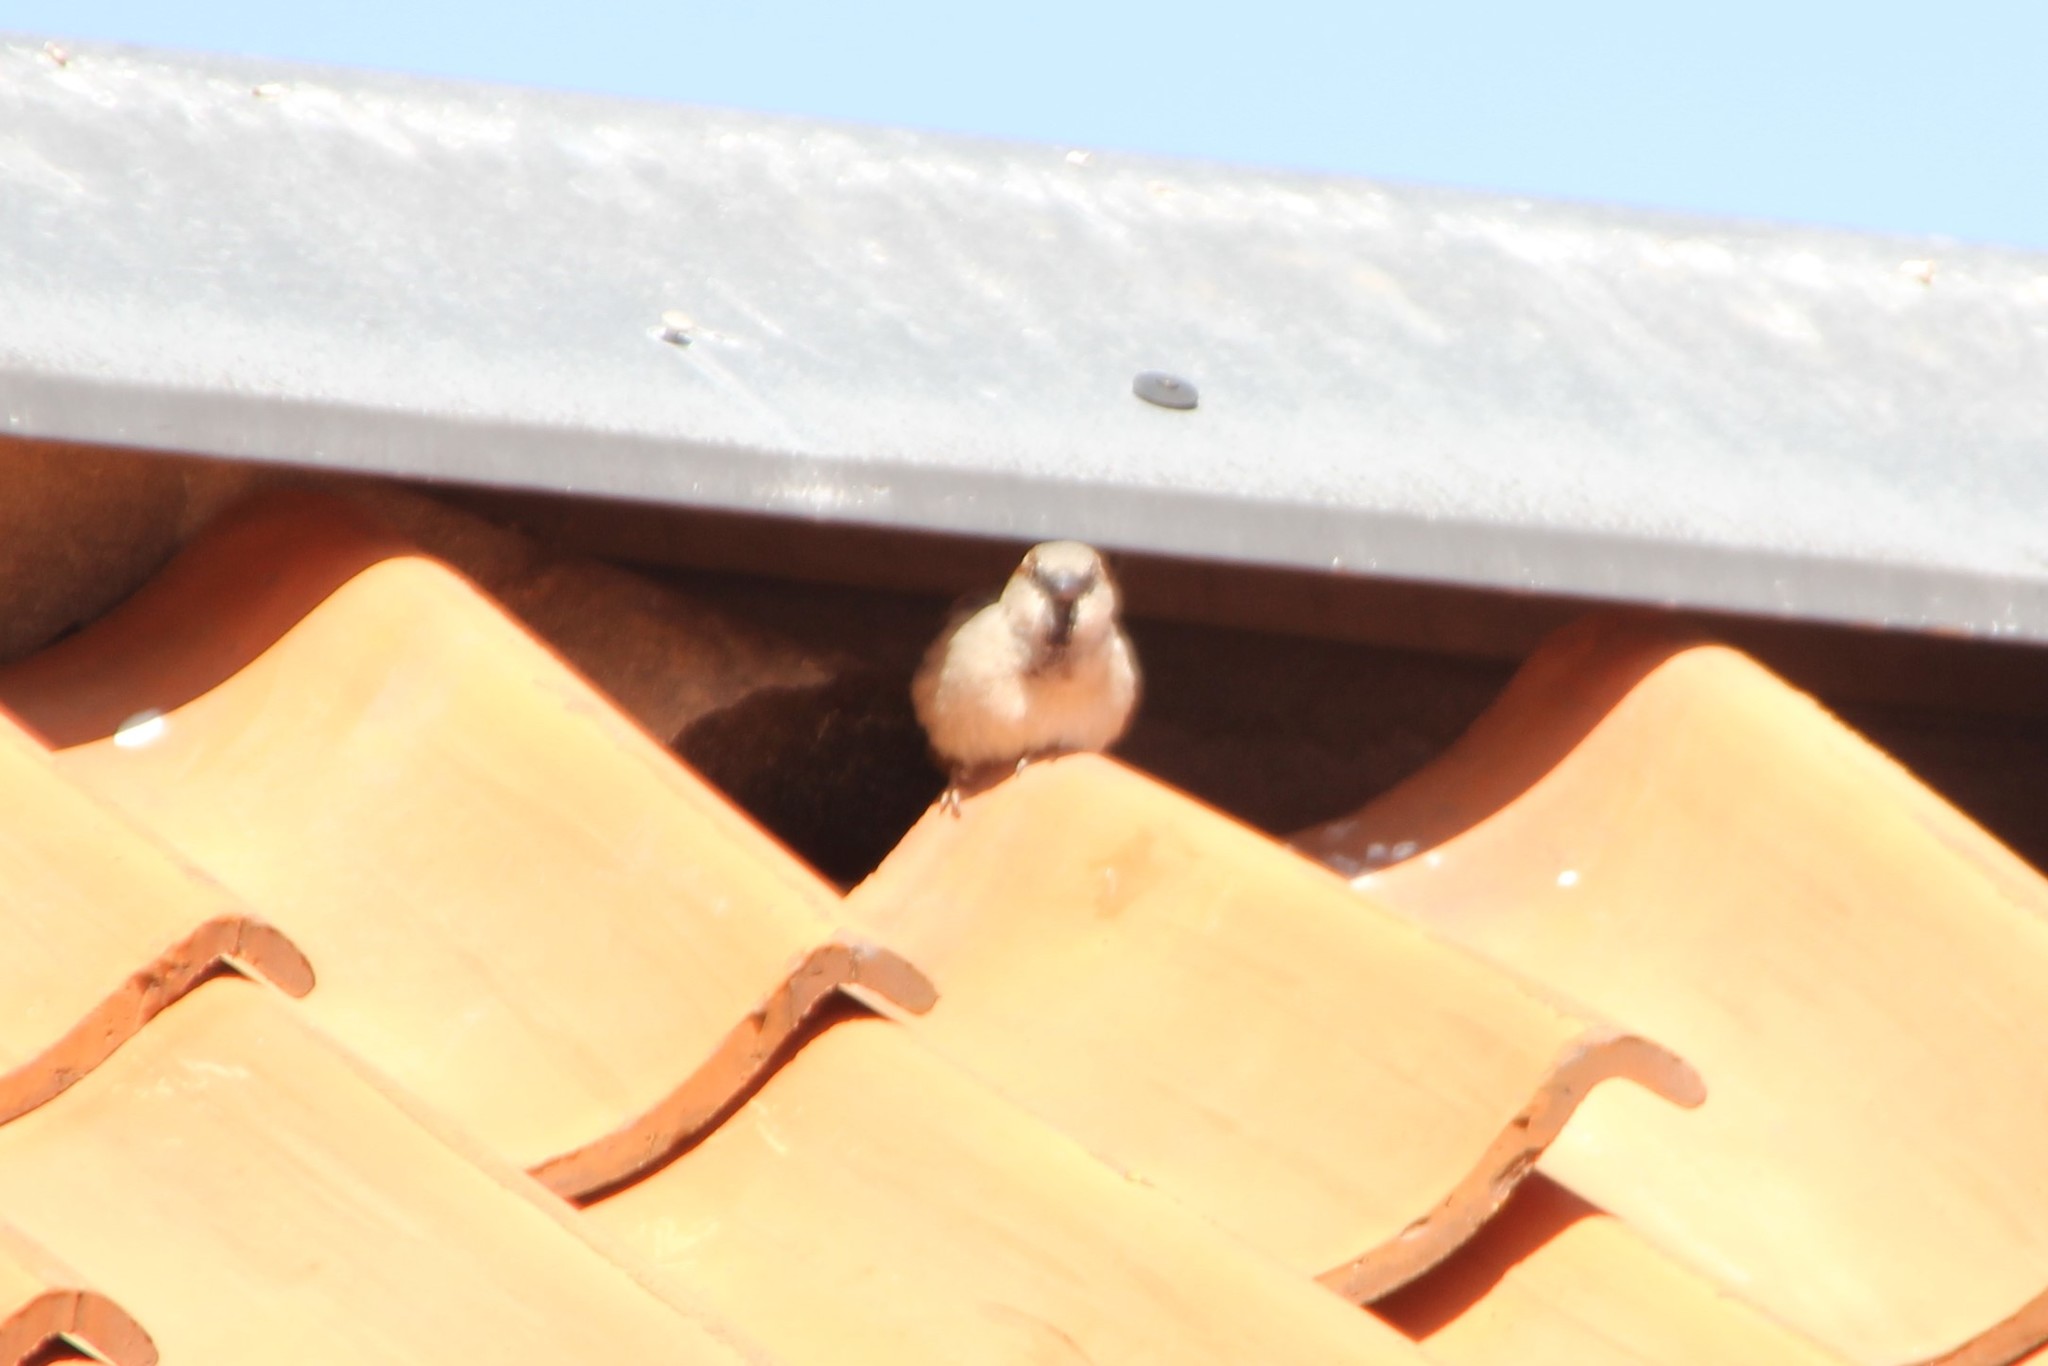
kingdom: Animalia
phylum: Chordata
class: Aves
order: Passeriformes
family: Passeridae
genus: Passer
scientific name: Passer domesticus
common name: House sparrow
